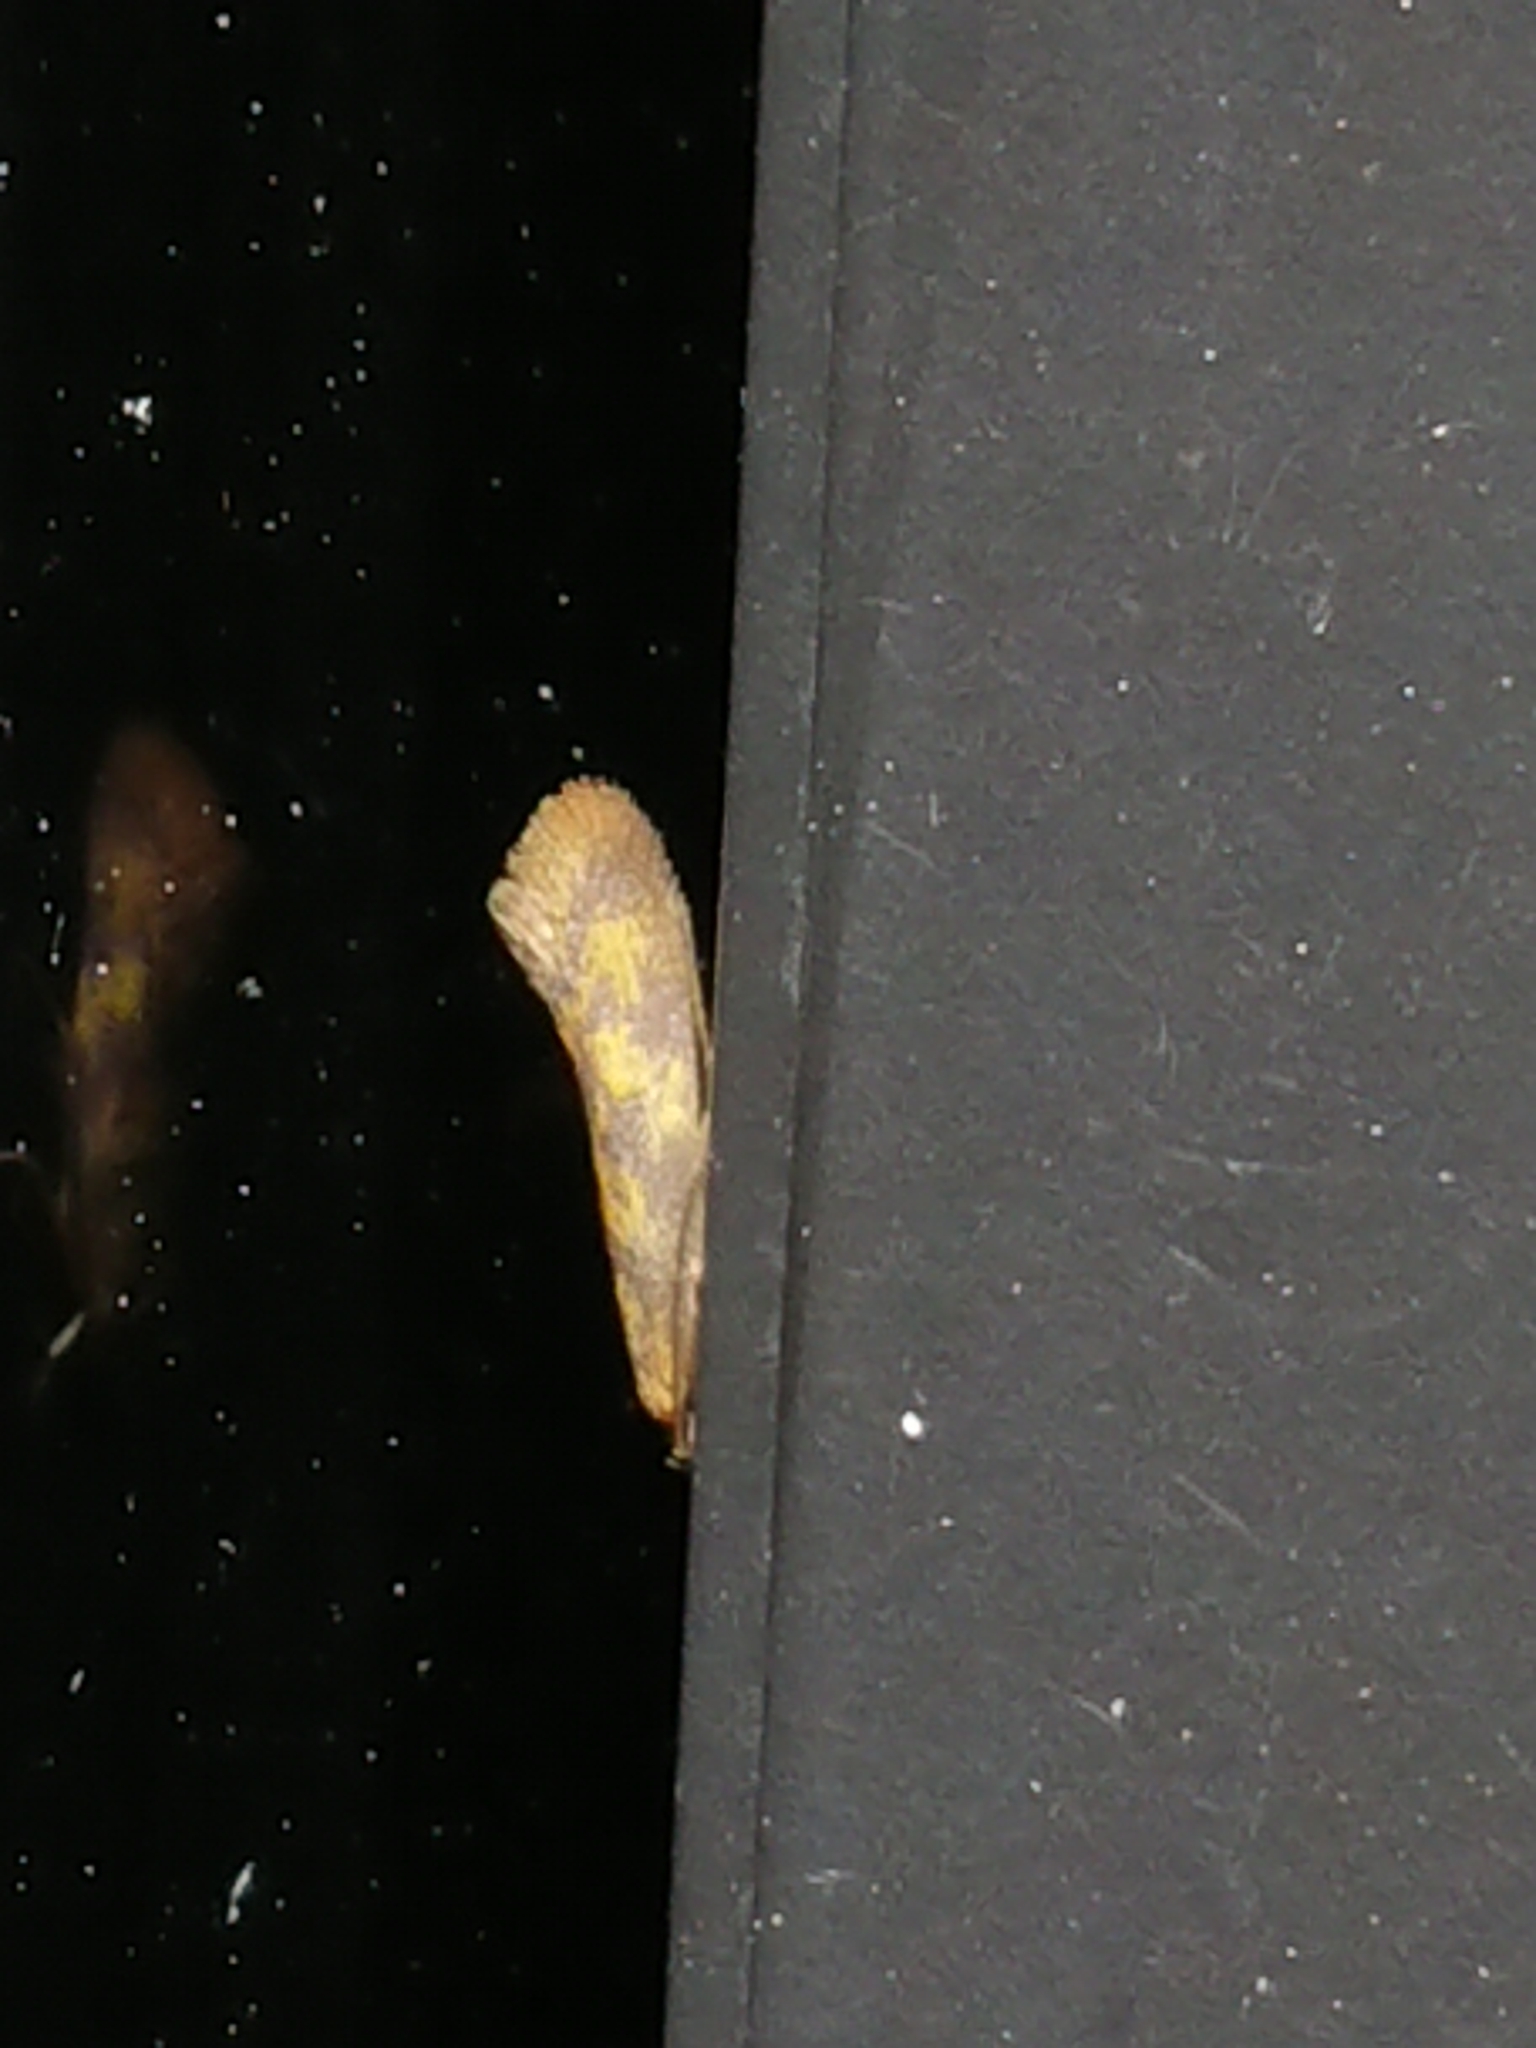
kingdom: Animalia
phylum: Arthropoda
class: Insecta
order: Lepidoptera
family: Oecophoridae
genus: Tingena
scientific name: Tingena hoplodesma
